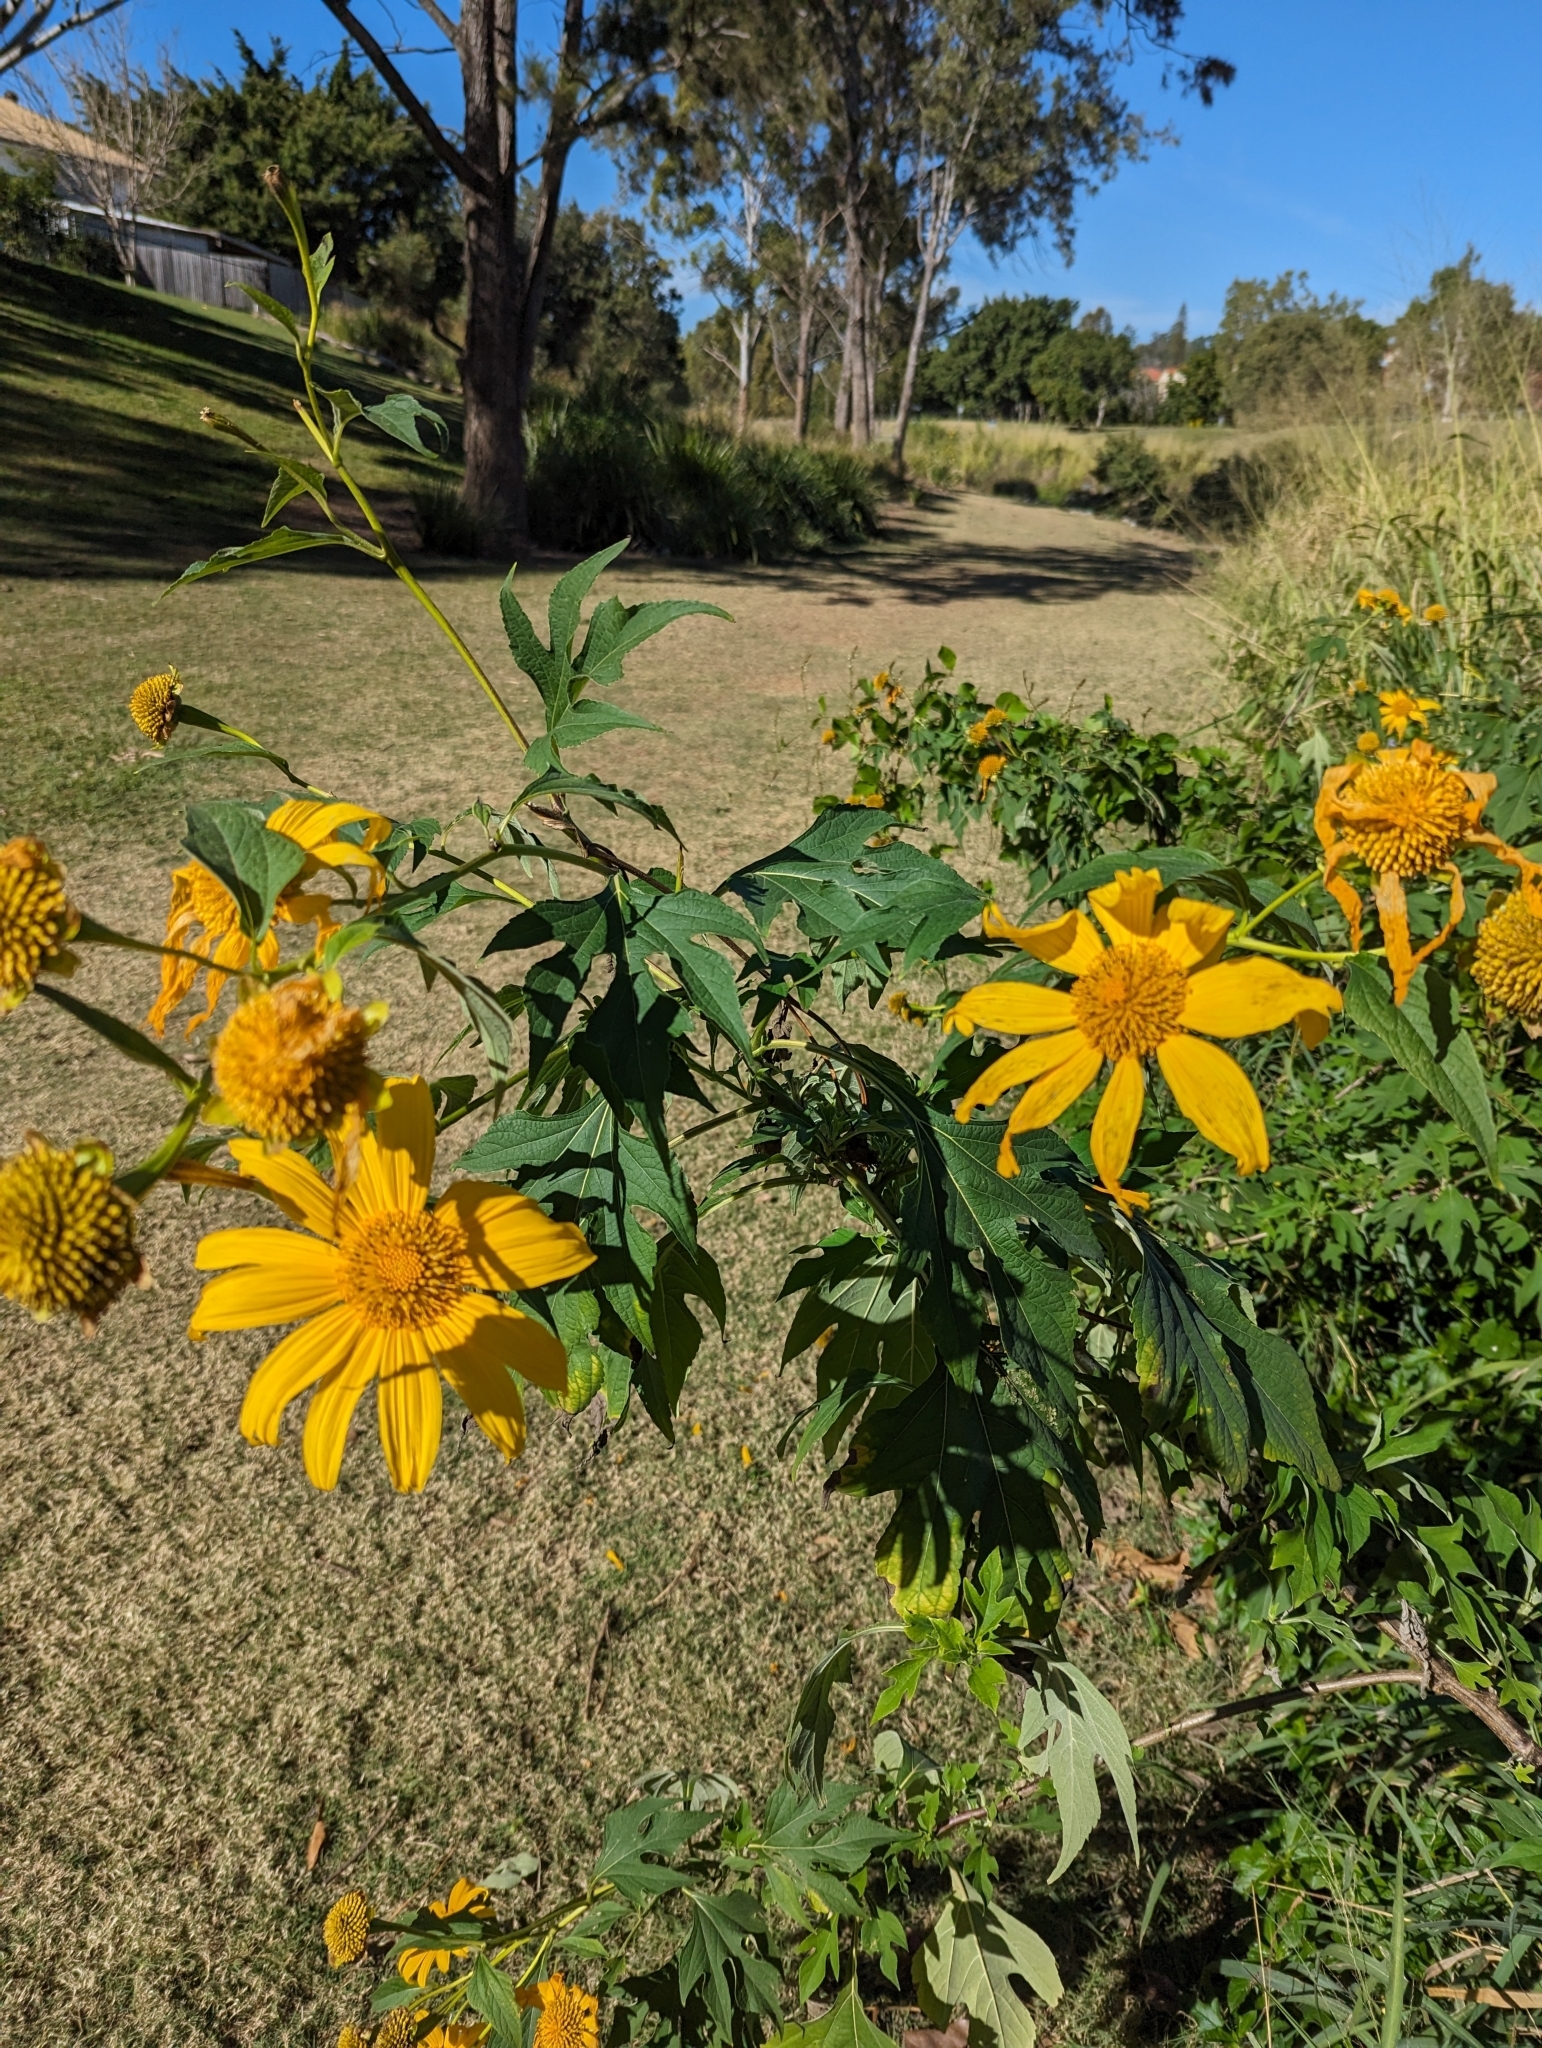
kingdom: Plantae
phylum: Tracheophyta
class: Magnoliopsida
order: Asterales
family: Asteraceae
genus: Tithonia
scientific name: Tithonia diversifolia
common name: Tree marigold
